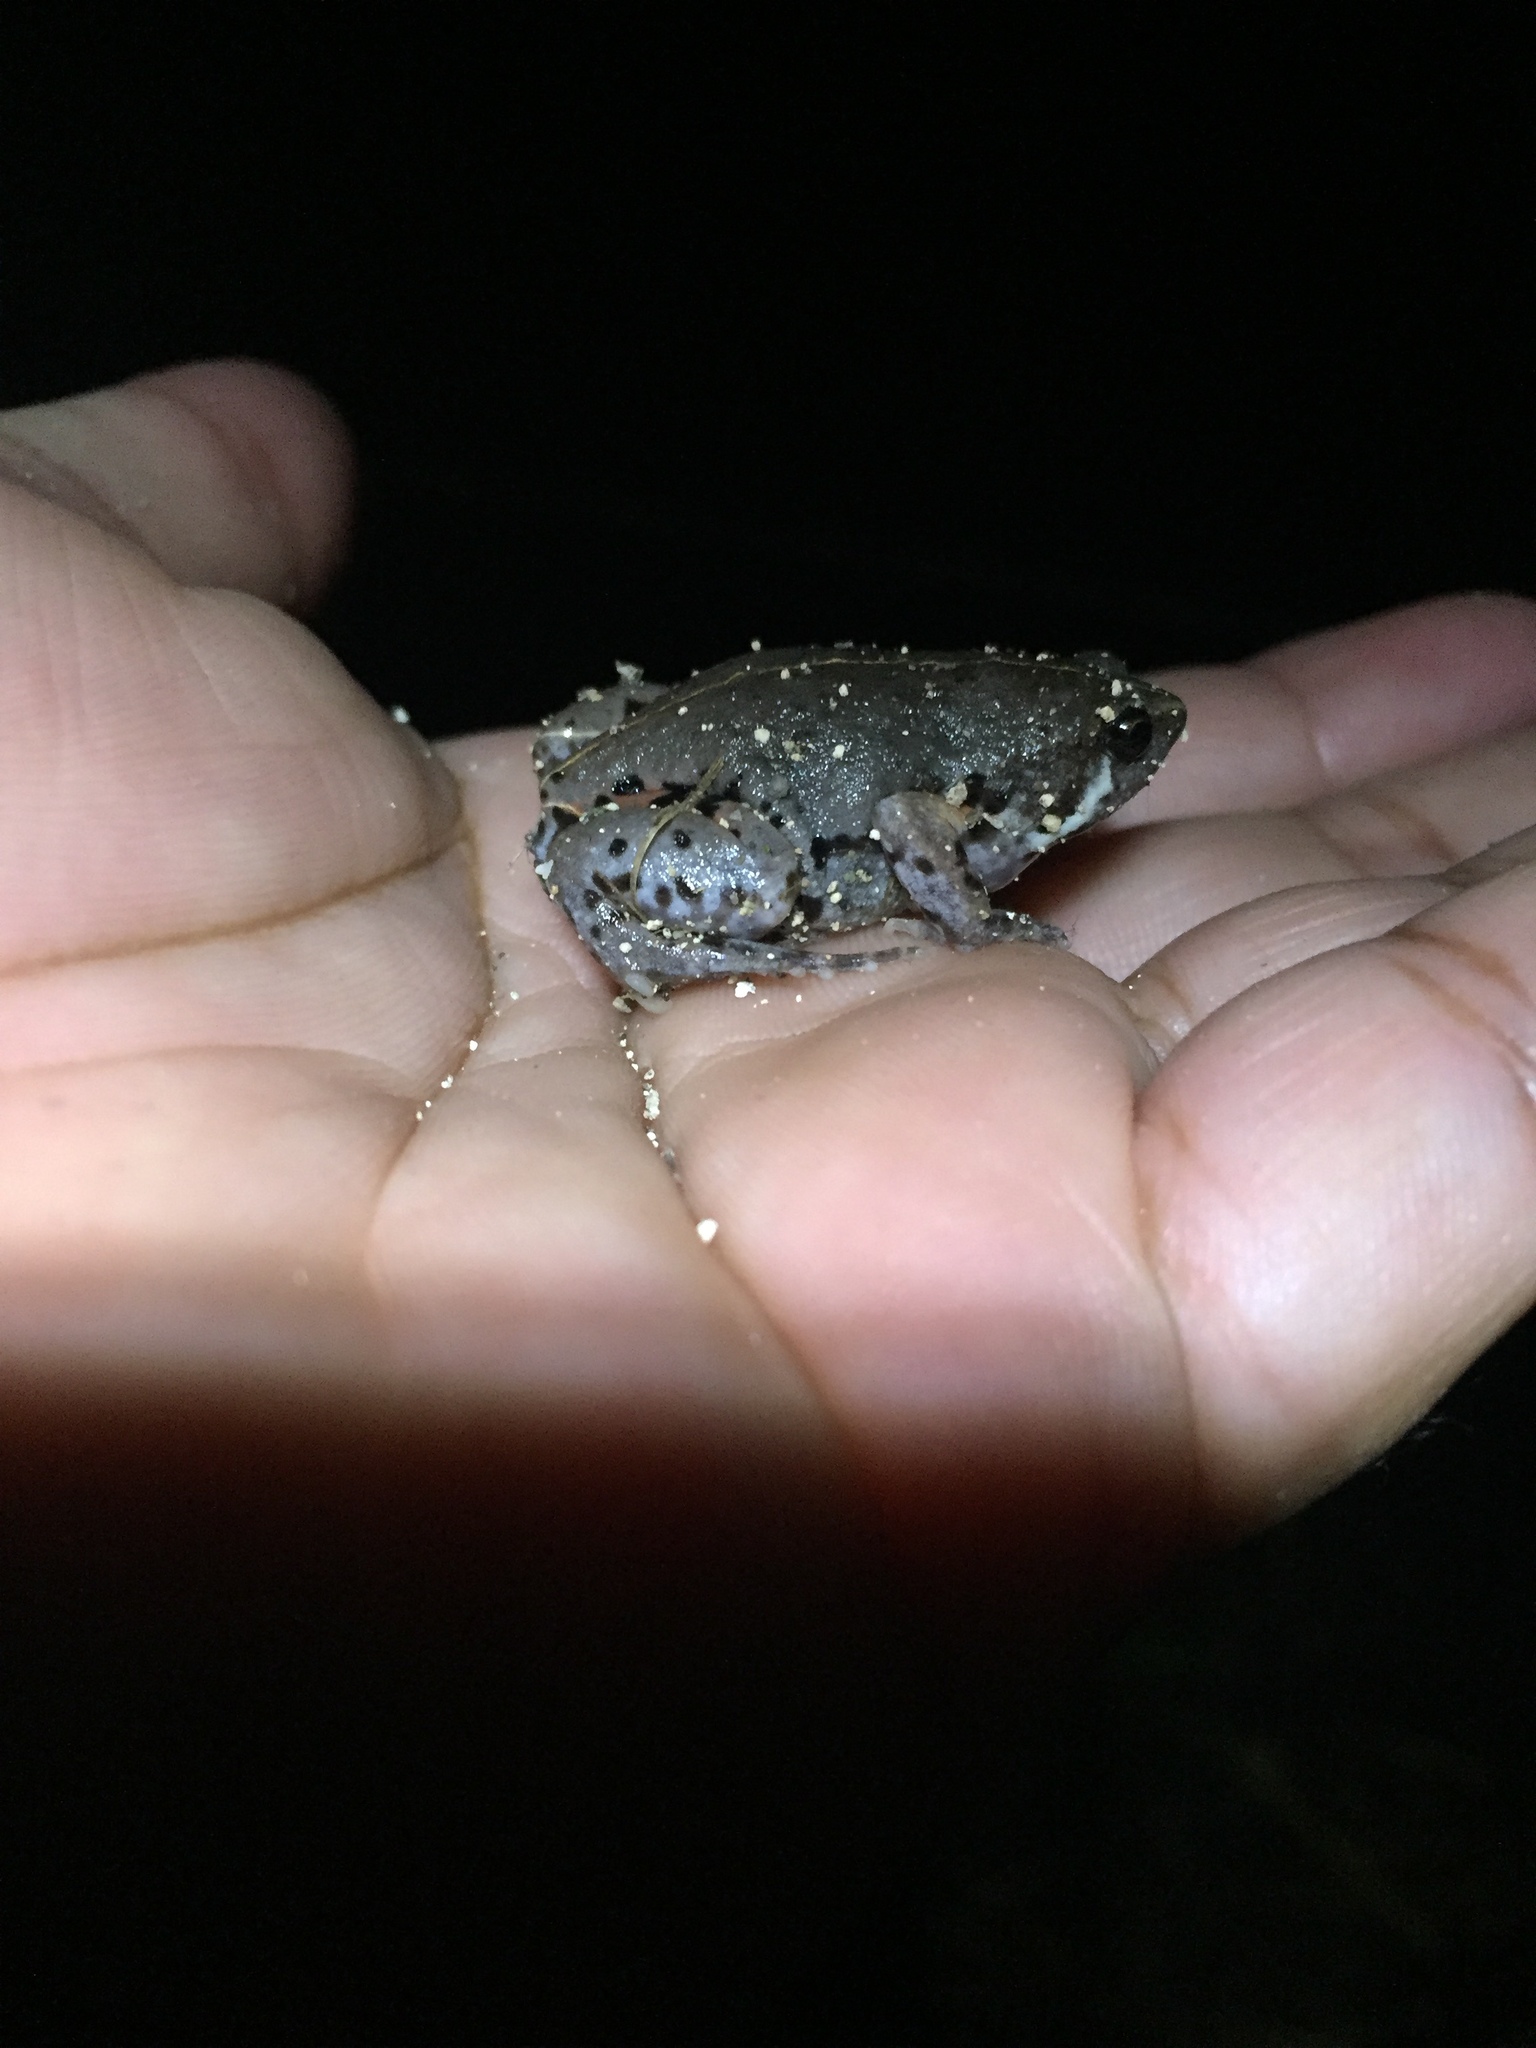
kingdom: Animalia
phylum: Chordata
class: Amphibia
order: Anura
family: Microhylidae
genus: Hypopachus
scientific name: Hypopachus variolosus
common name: Sheep frog
